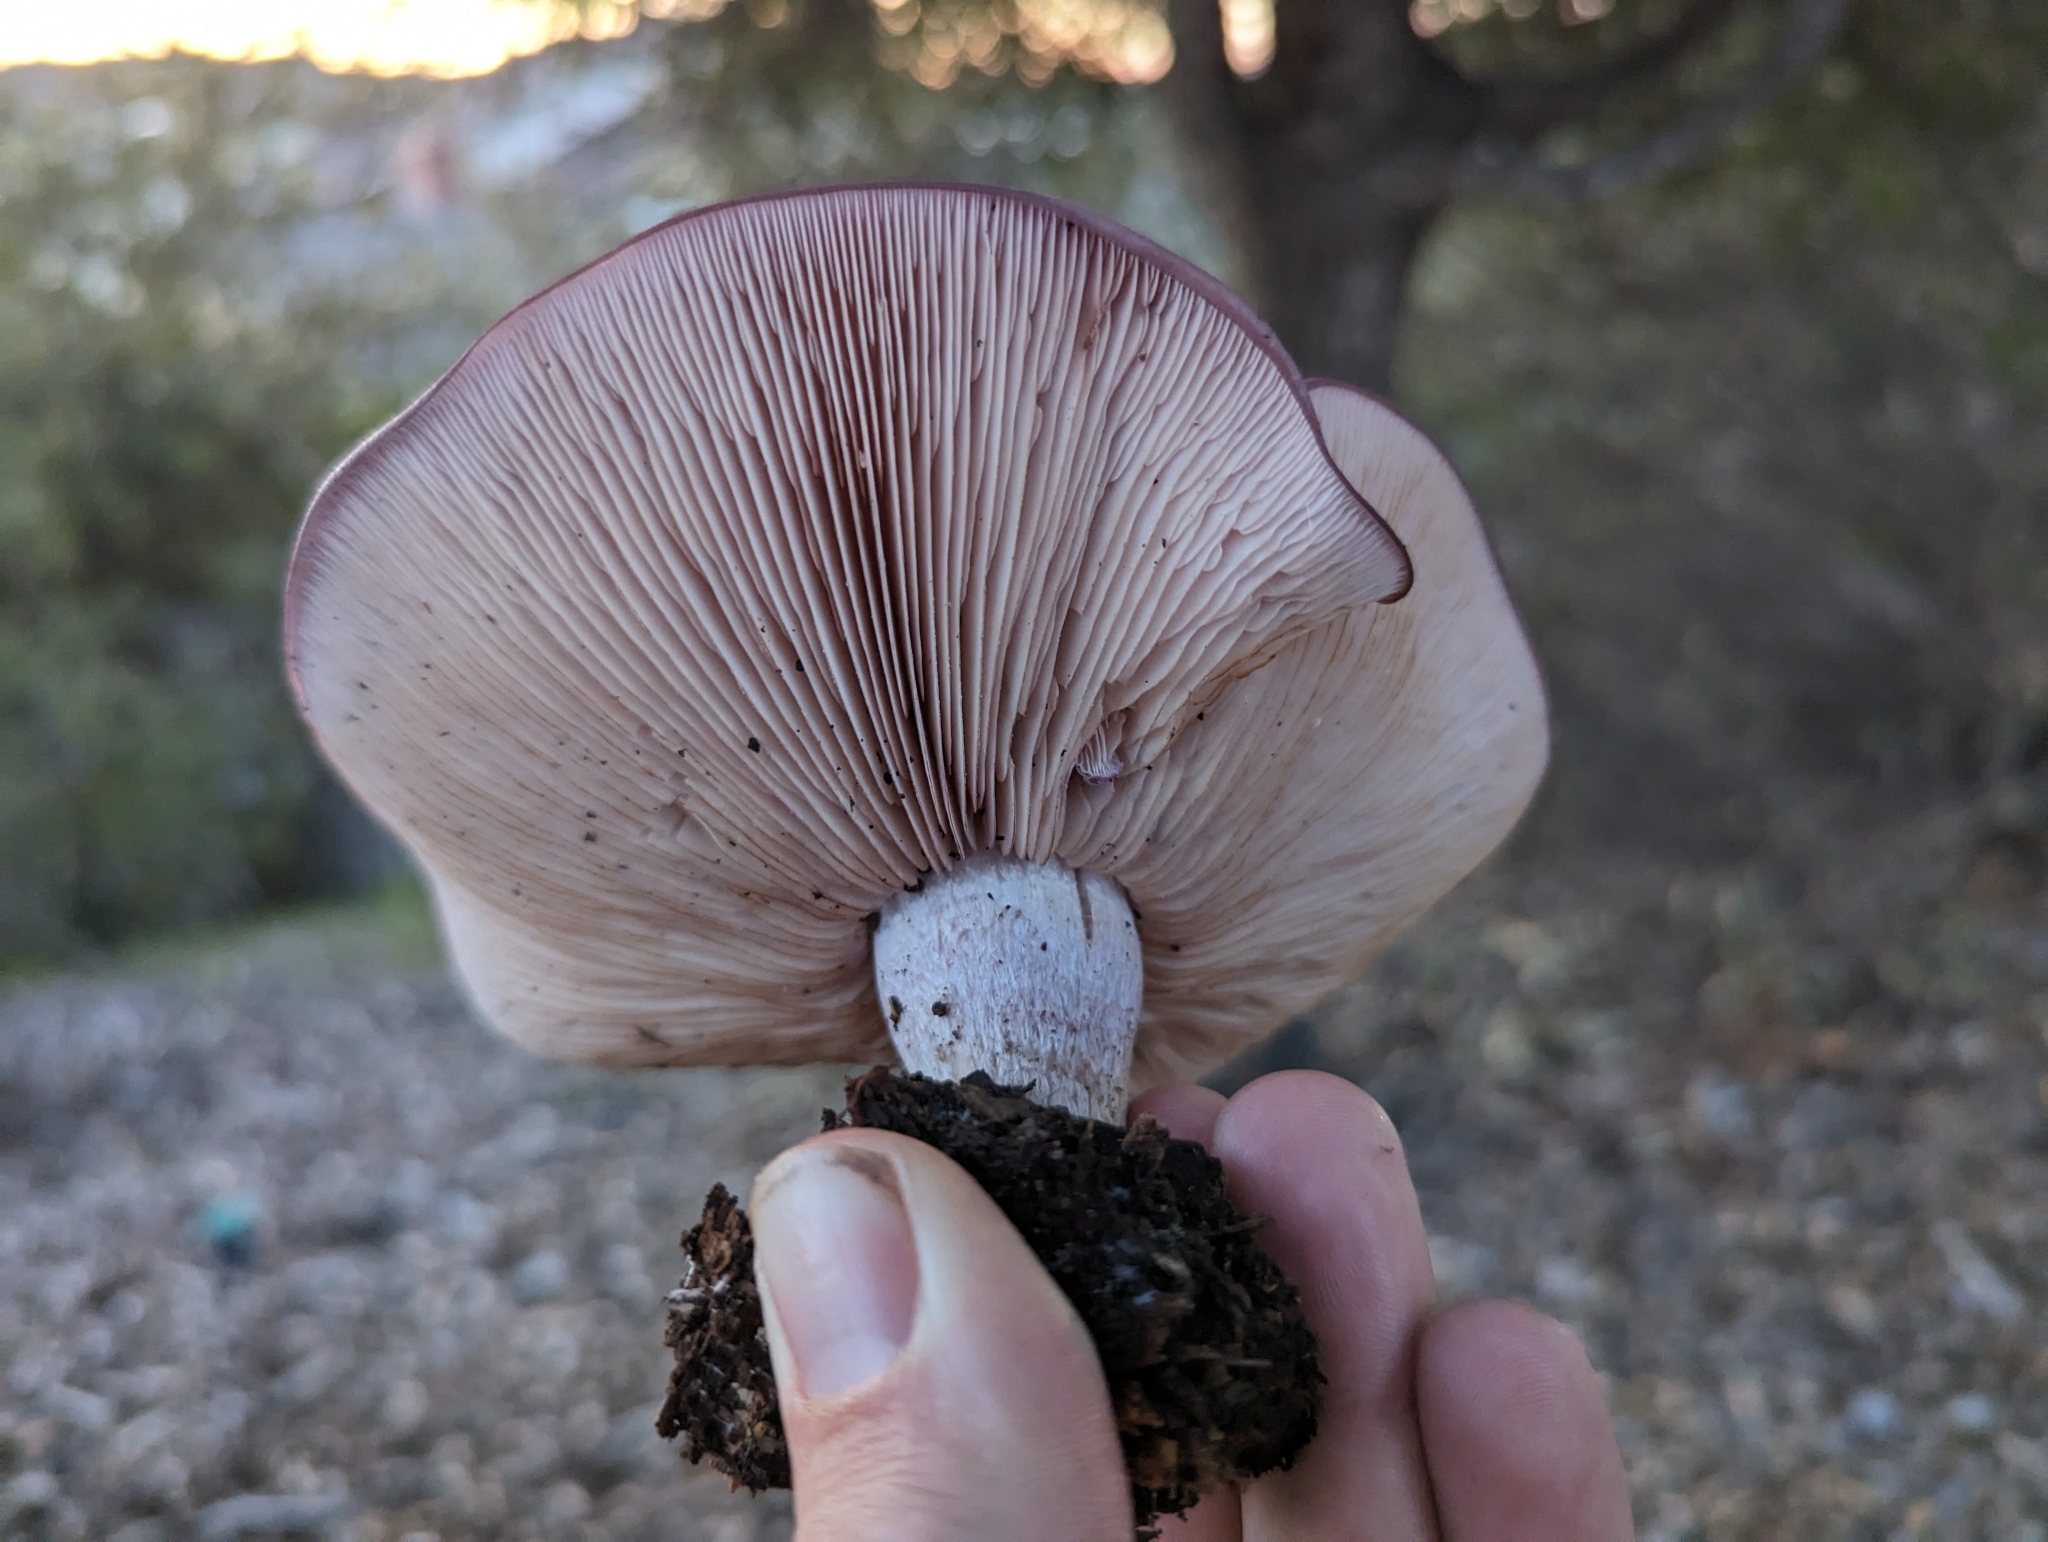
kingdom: Fungi
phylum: Basidiomycota
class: Agaricomycetes
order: Agaricales
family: Tricholomataceae
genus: Collybia
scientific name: Collybia
